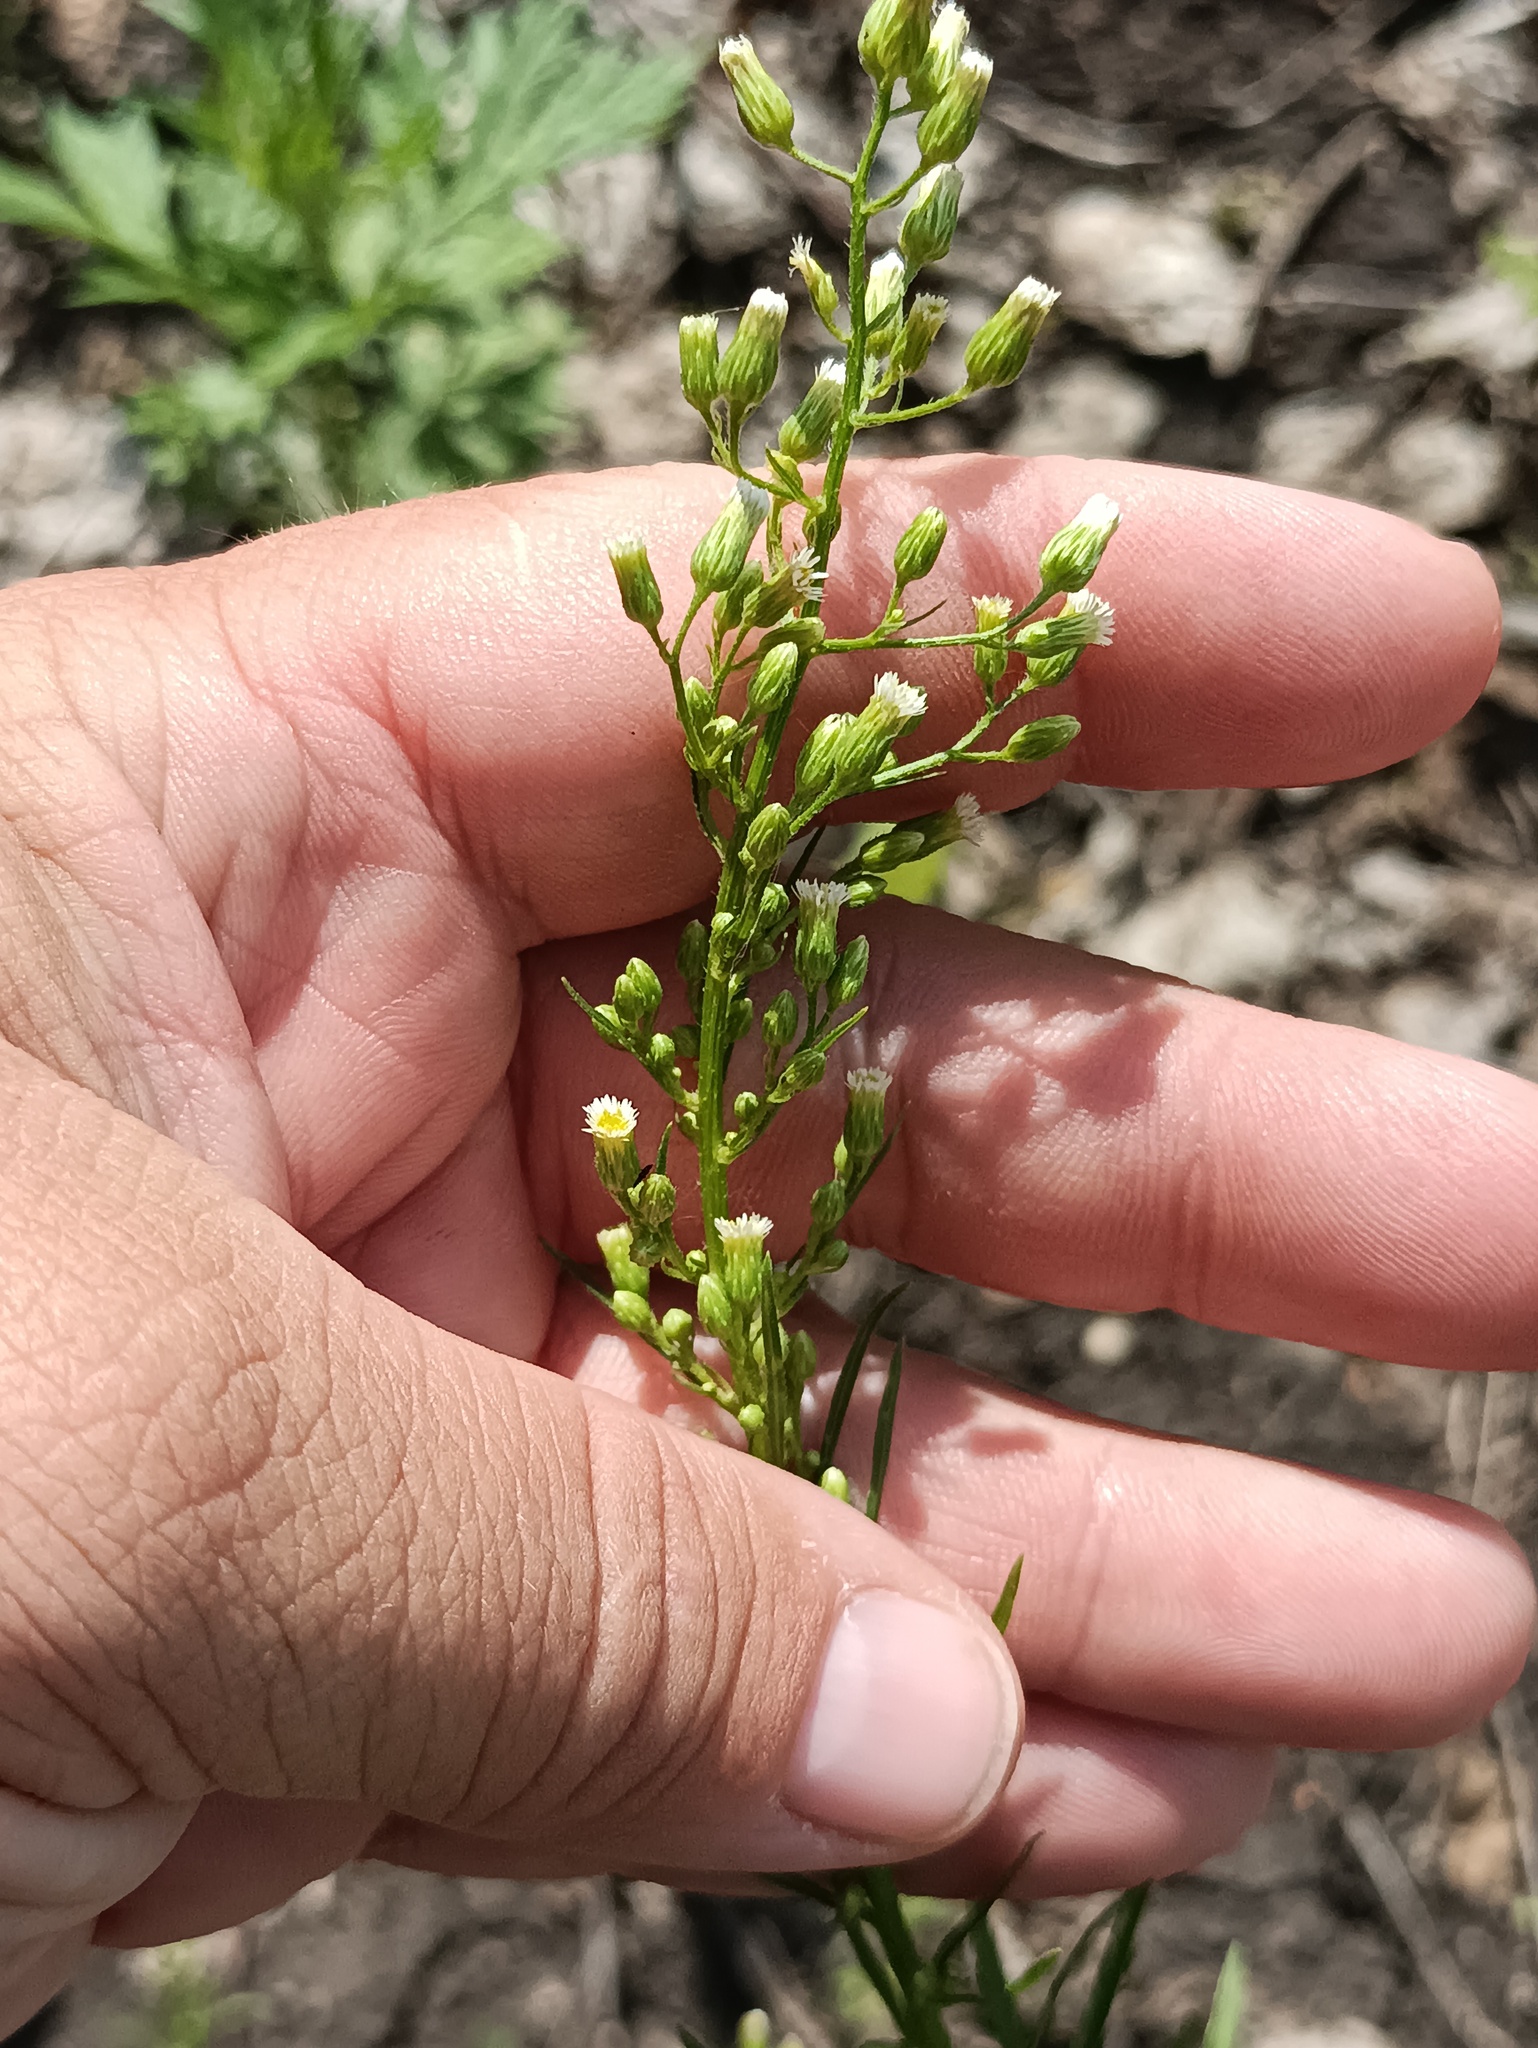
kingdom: Plantae
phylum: Tracheophyta
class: Magnoliopsida
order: Asterales
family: Asteraceae
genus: Erigeron
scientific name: Erigeron canadensis
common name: Canadian fleabane
